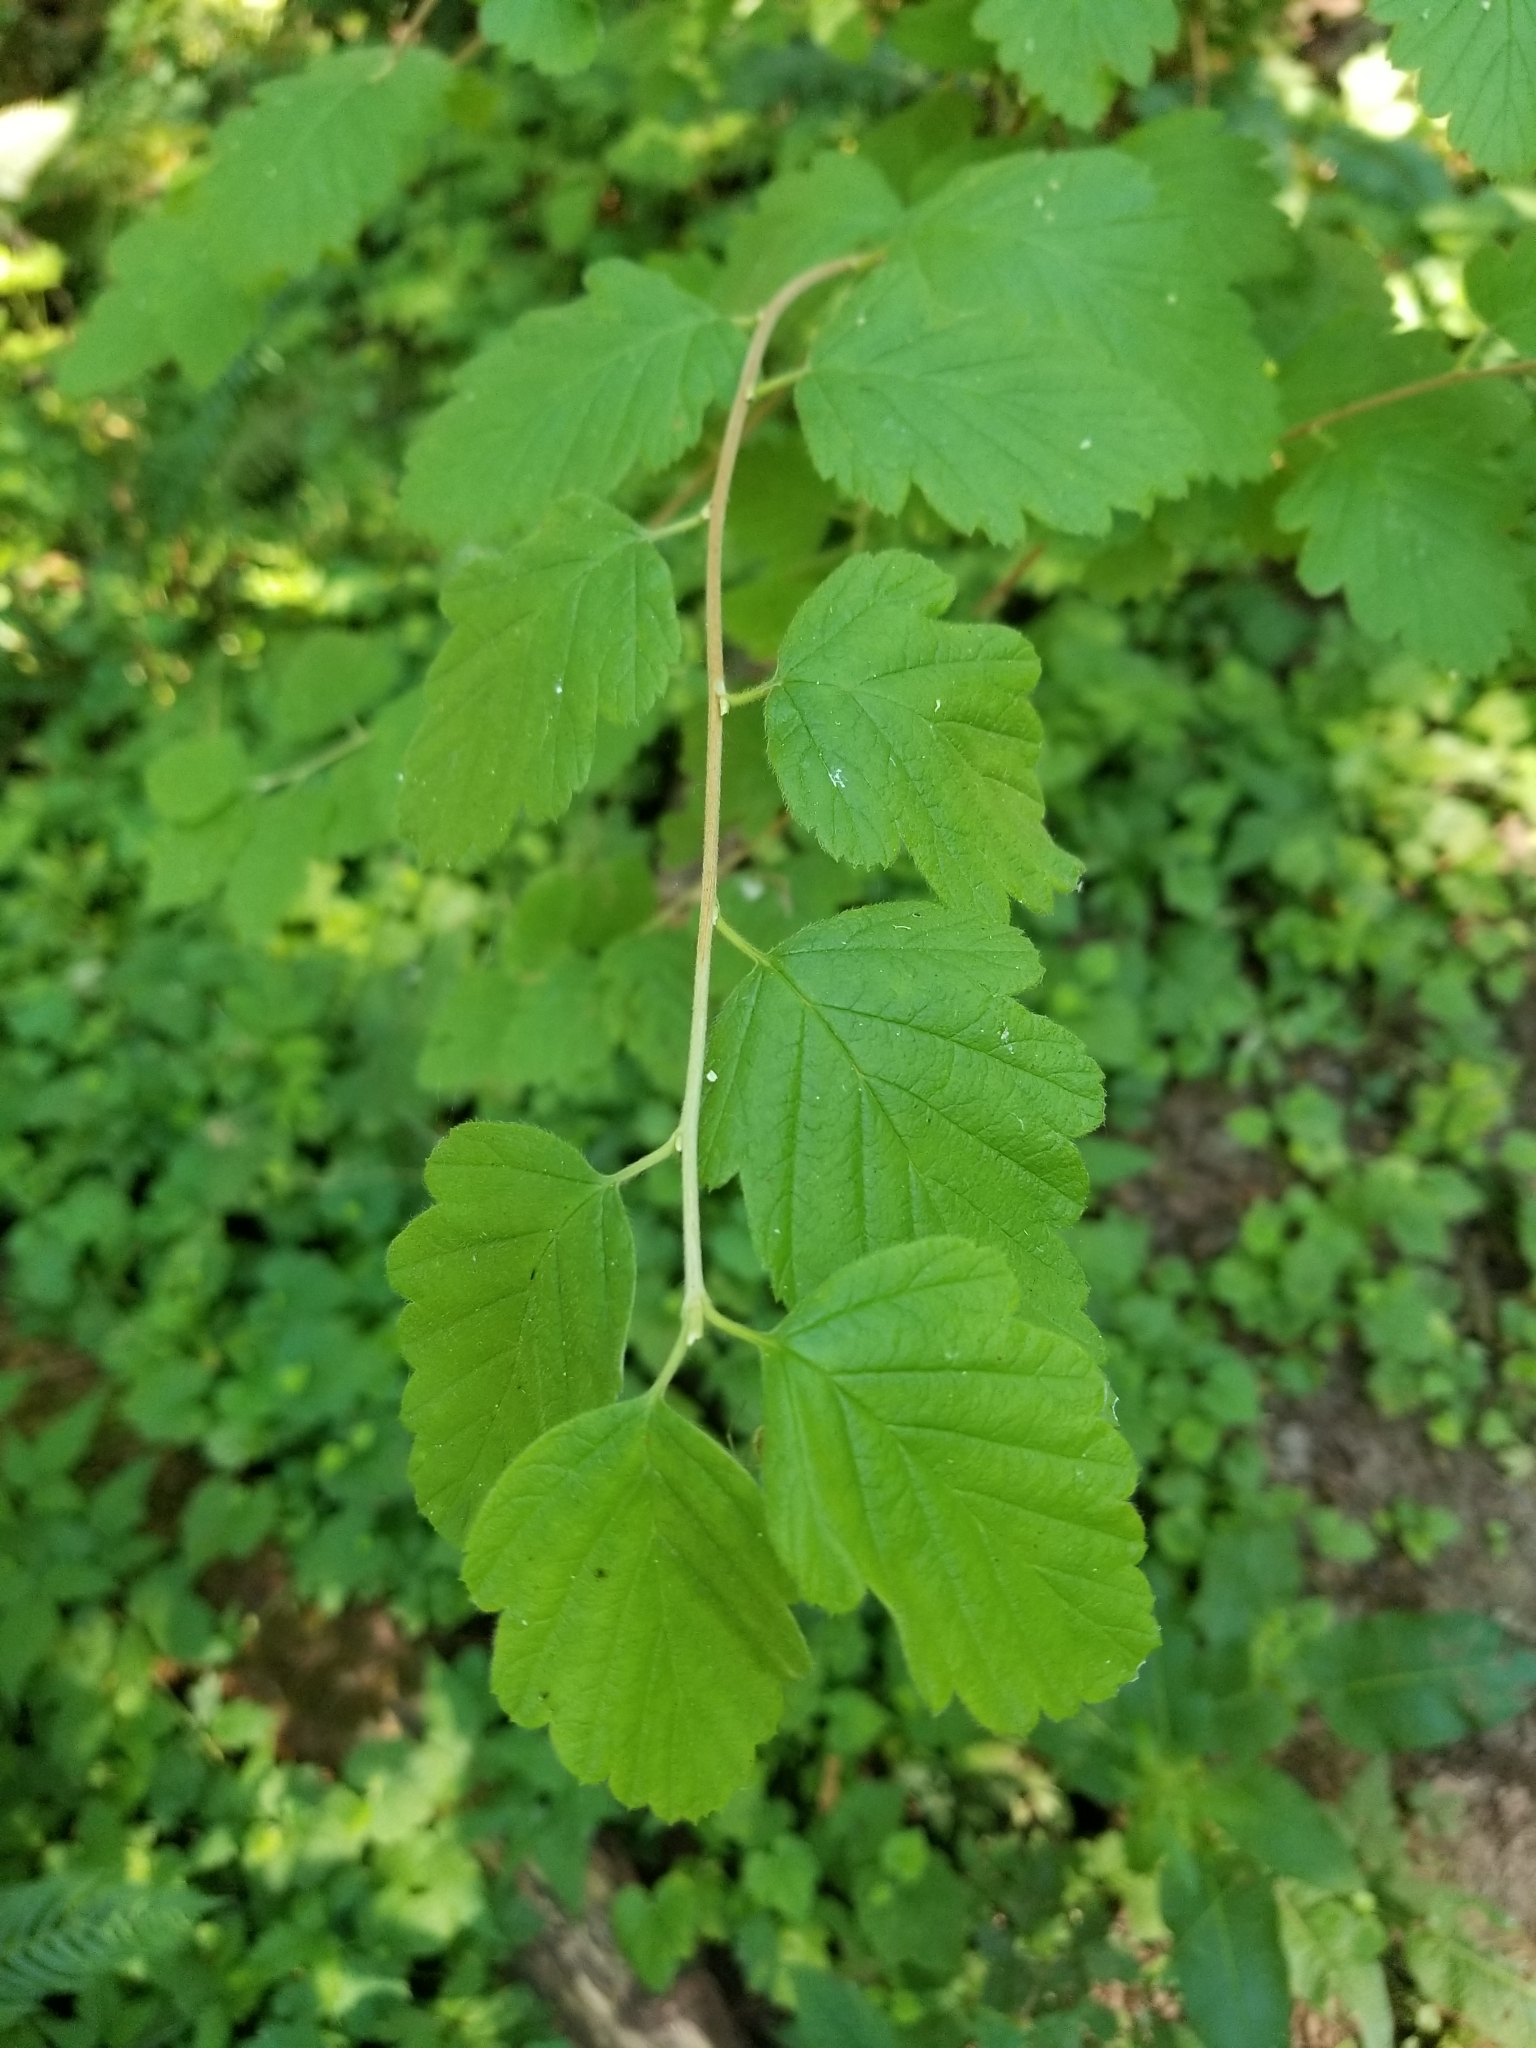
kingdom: Plantae
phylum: Tracheophyta
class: Magnoliopsida
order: Rosales
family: Rosaceae
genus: Holodiscus
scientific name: Holodiscus discolor
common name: Oceanspray
